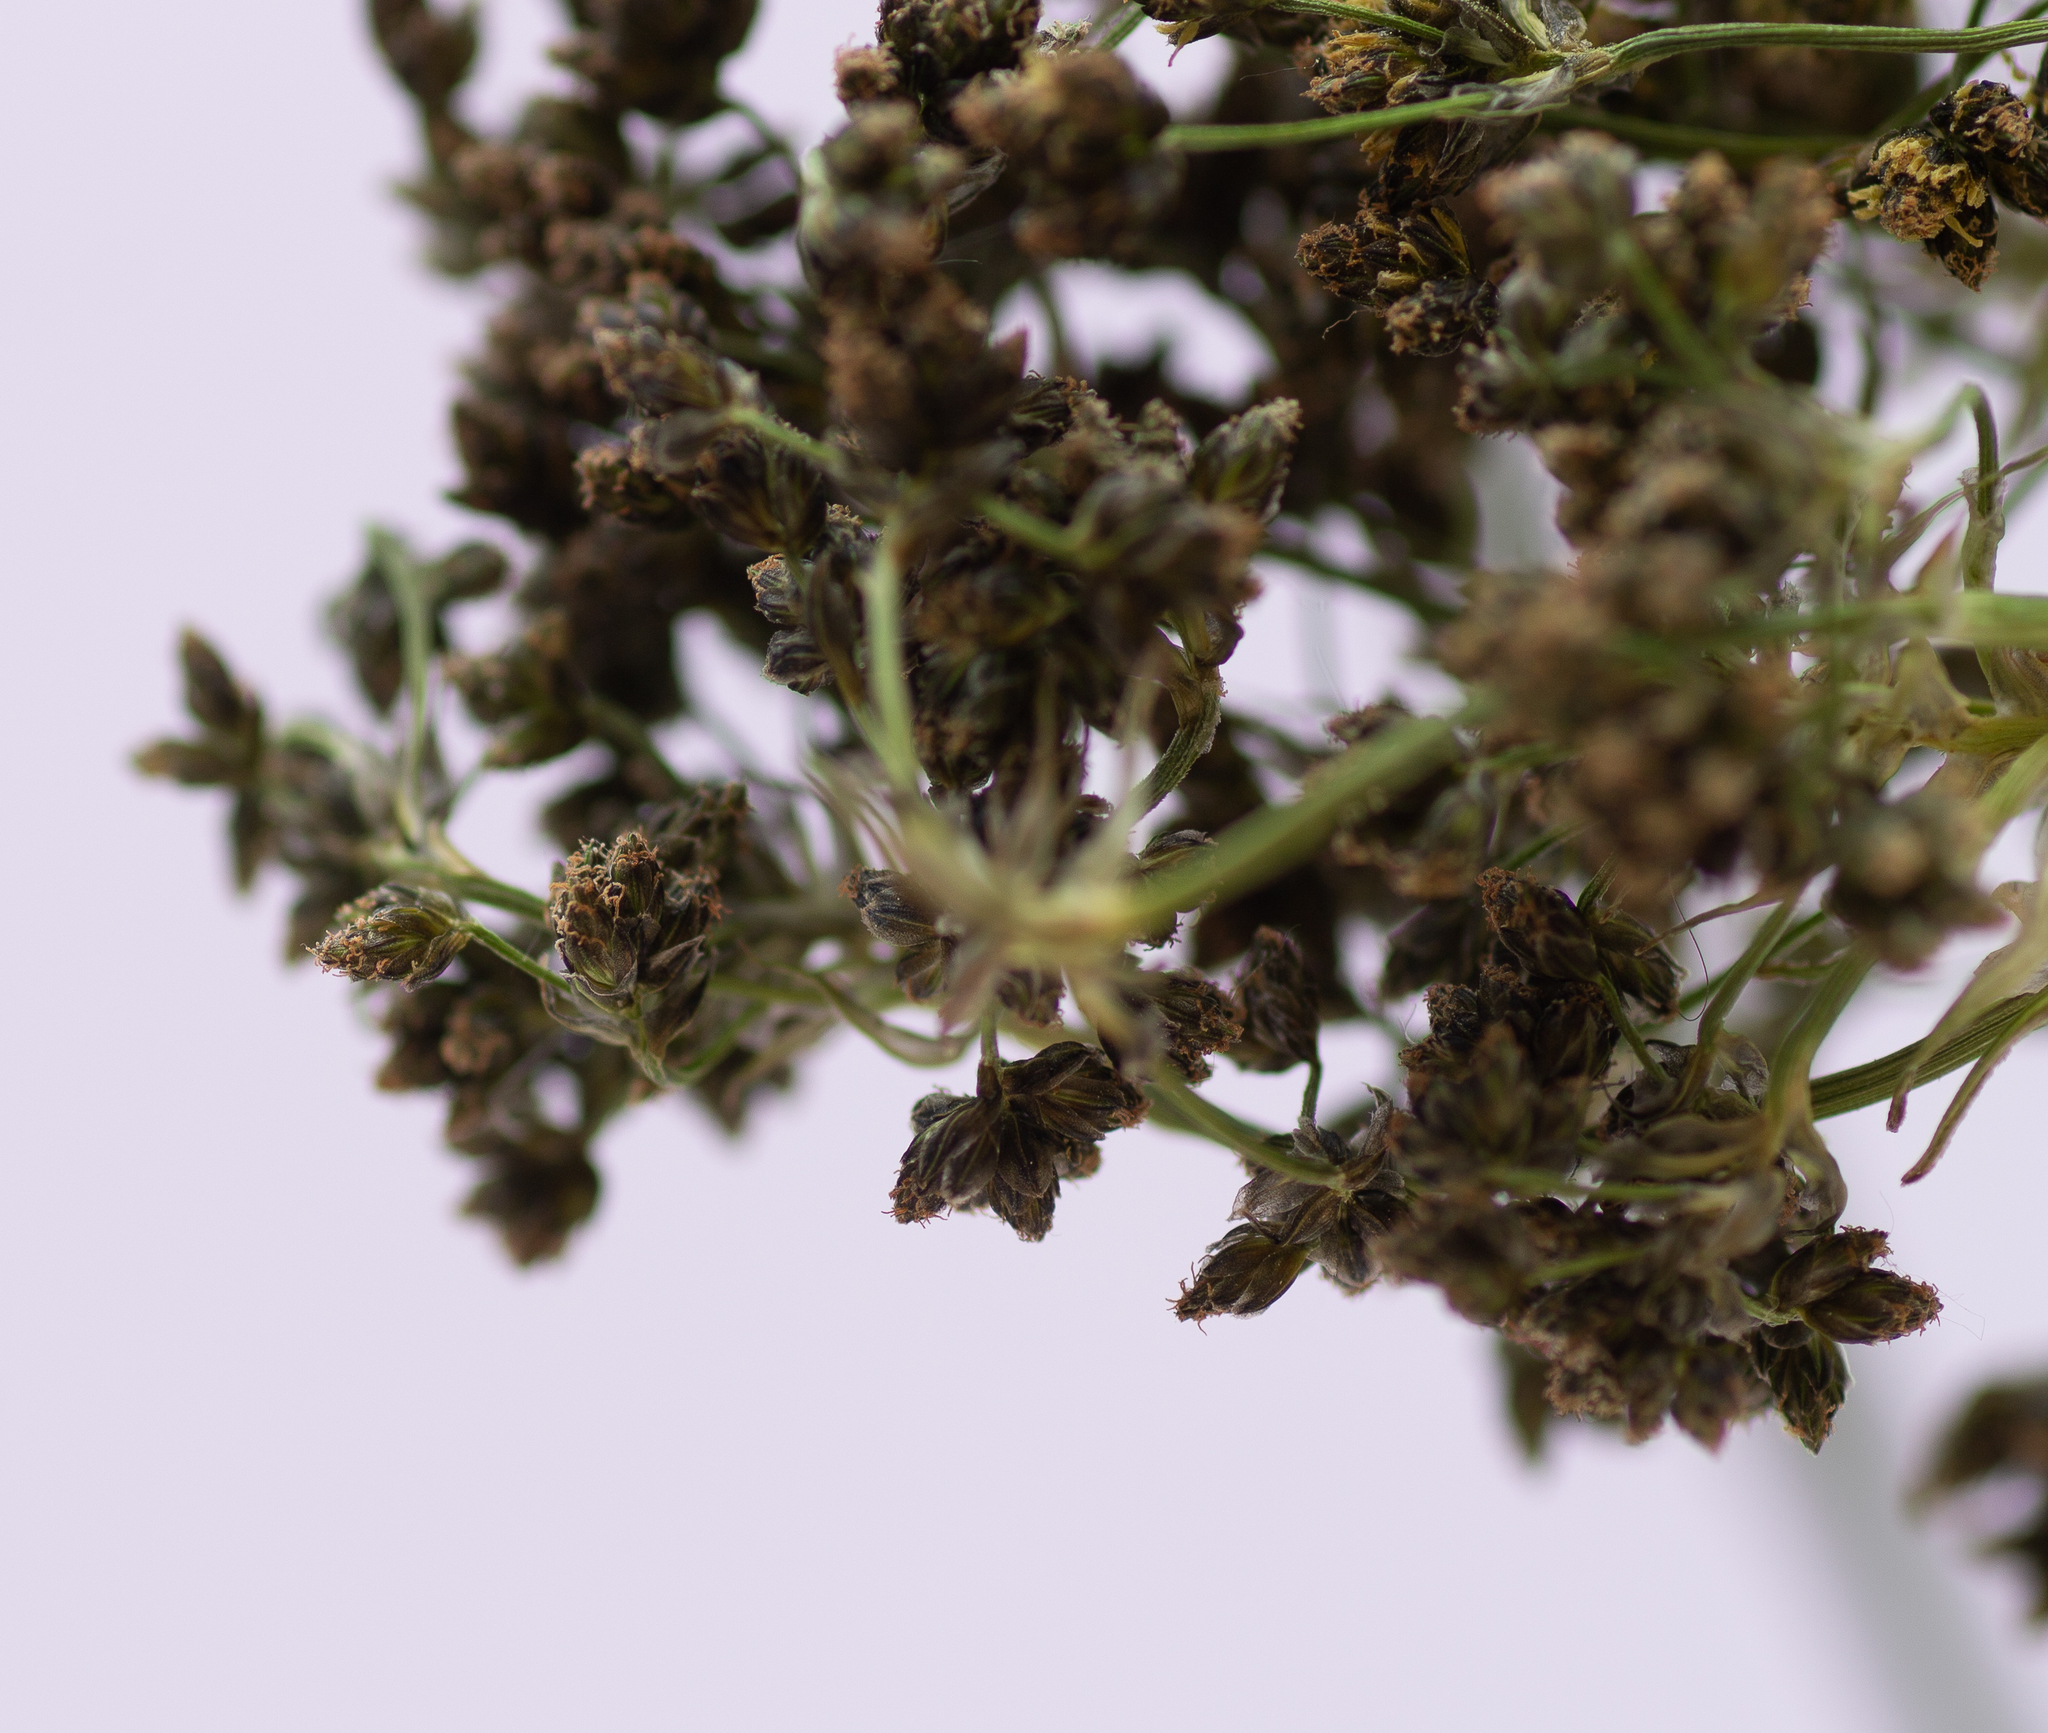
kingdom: Plantae
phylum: Tracheophyta
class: Liliopsida
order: Poales
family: Cyperaceae
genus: Scirpus
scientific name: Scirpus sylvaticus
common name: Wood club-rush
